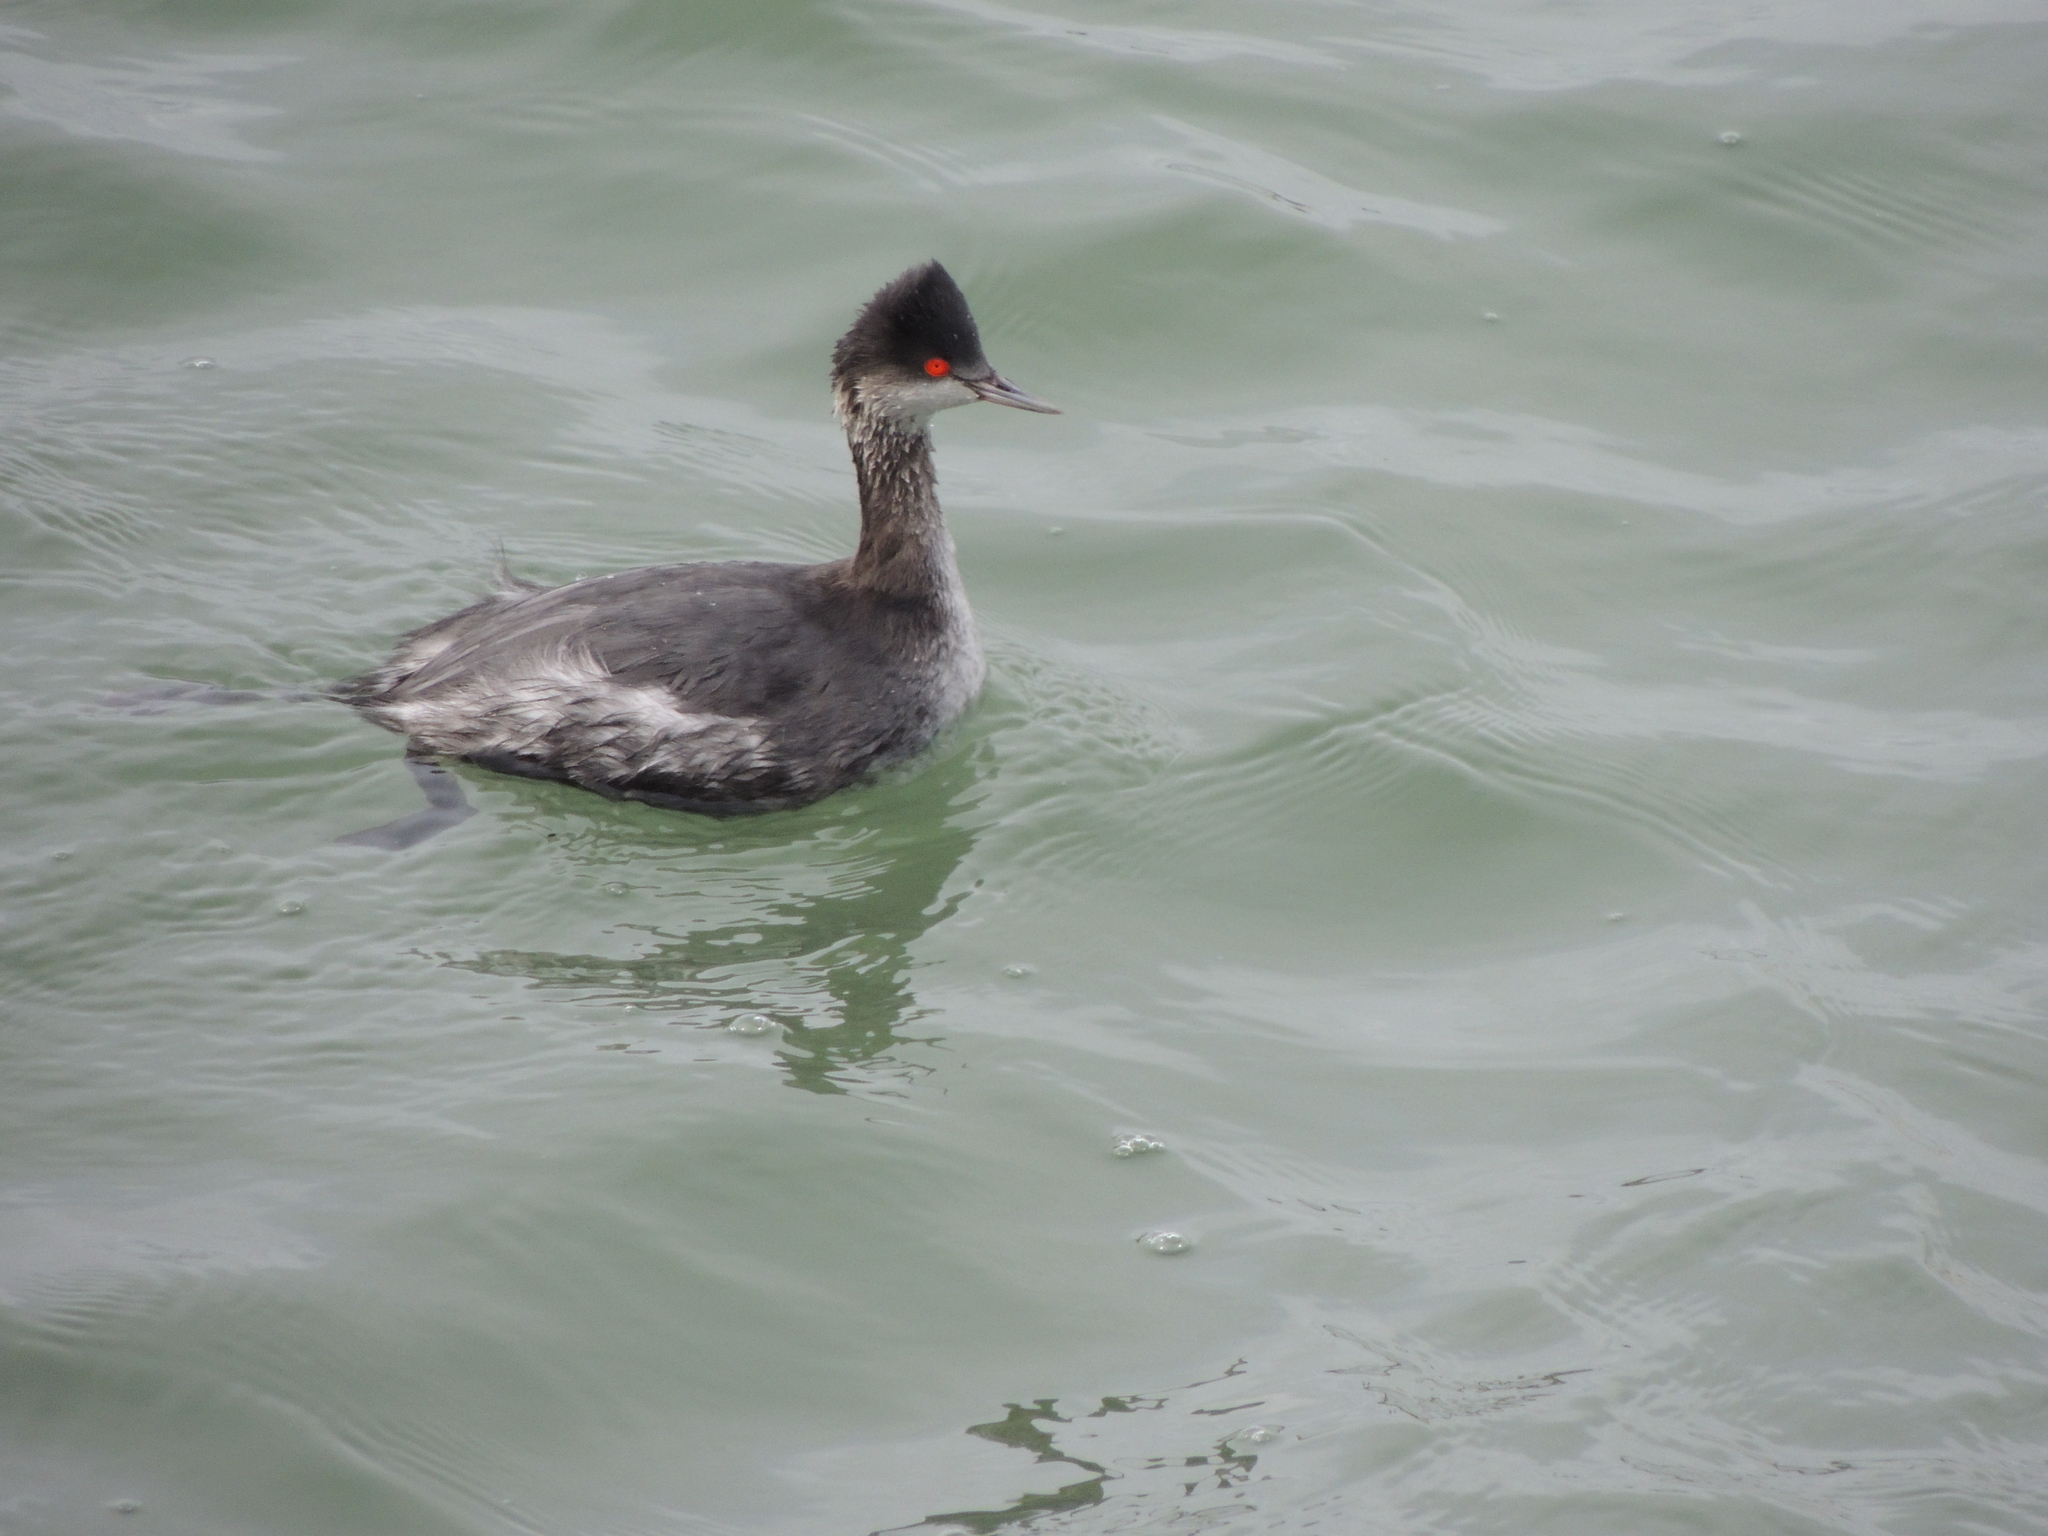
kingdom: Animalia
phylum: Chordata
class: Aves
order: Podicipediformes
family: Podicipedidae
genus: Podiceps
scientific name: Podiceps nigricollis
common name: Black-necked grebe
